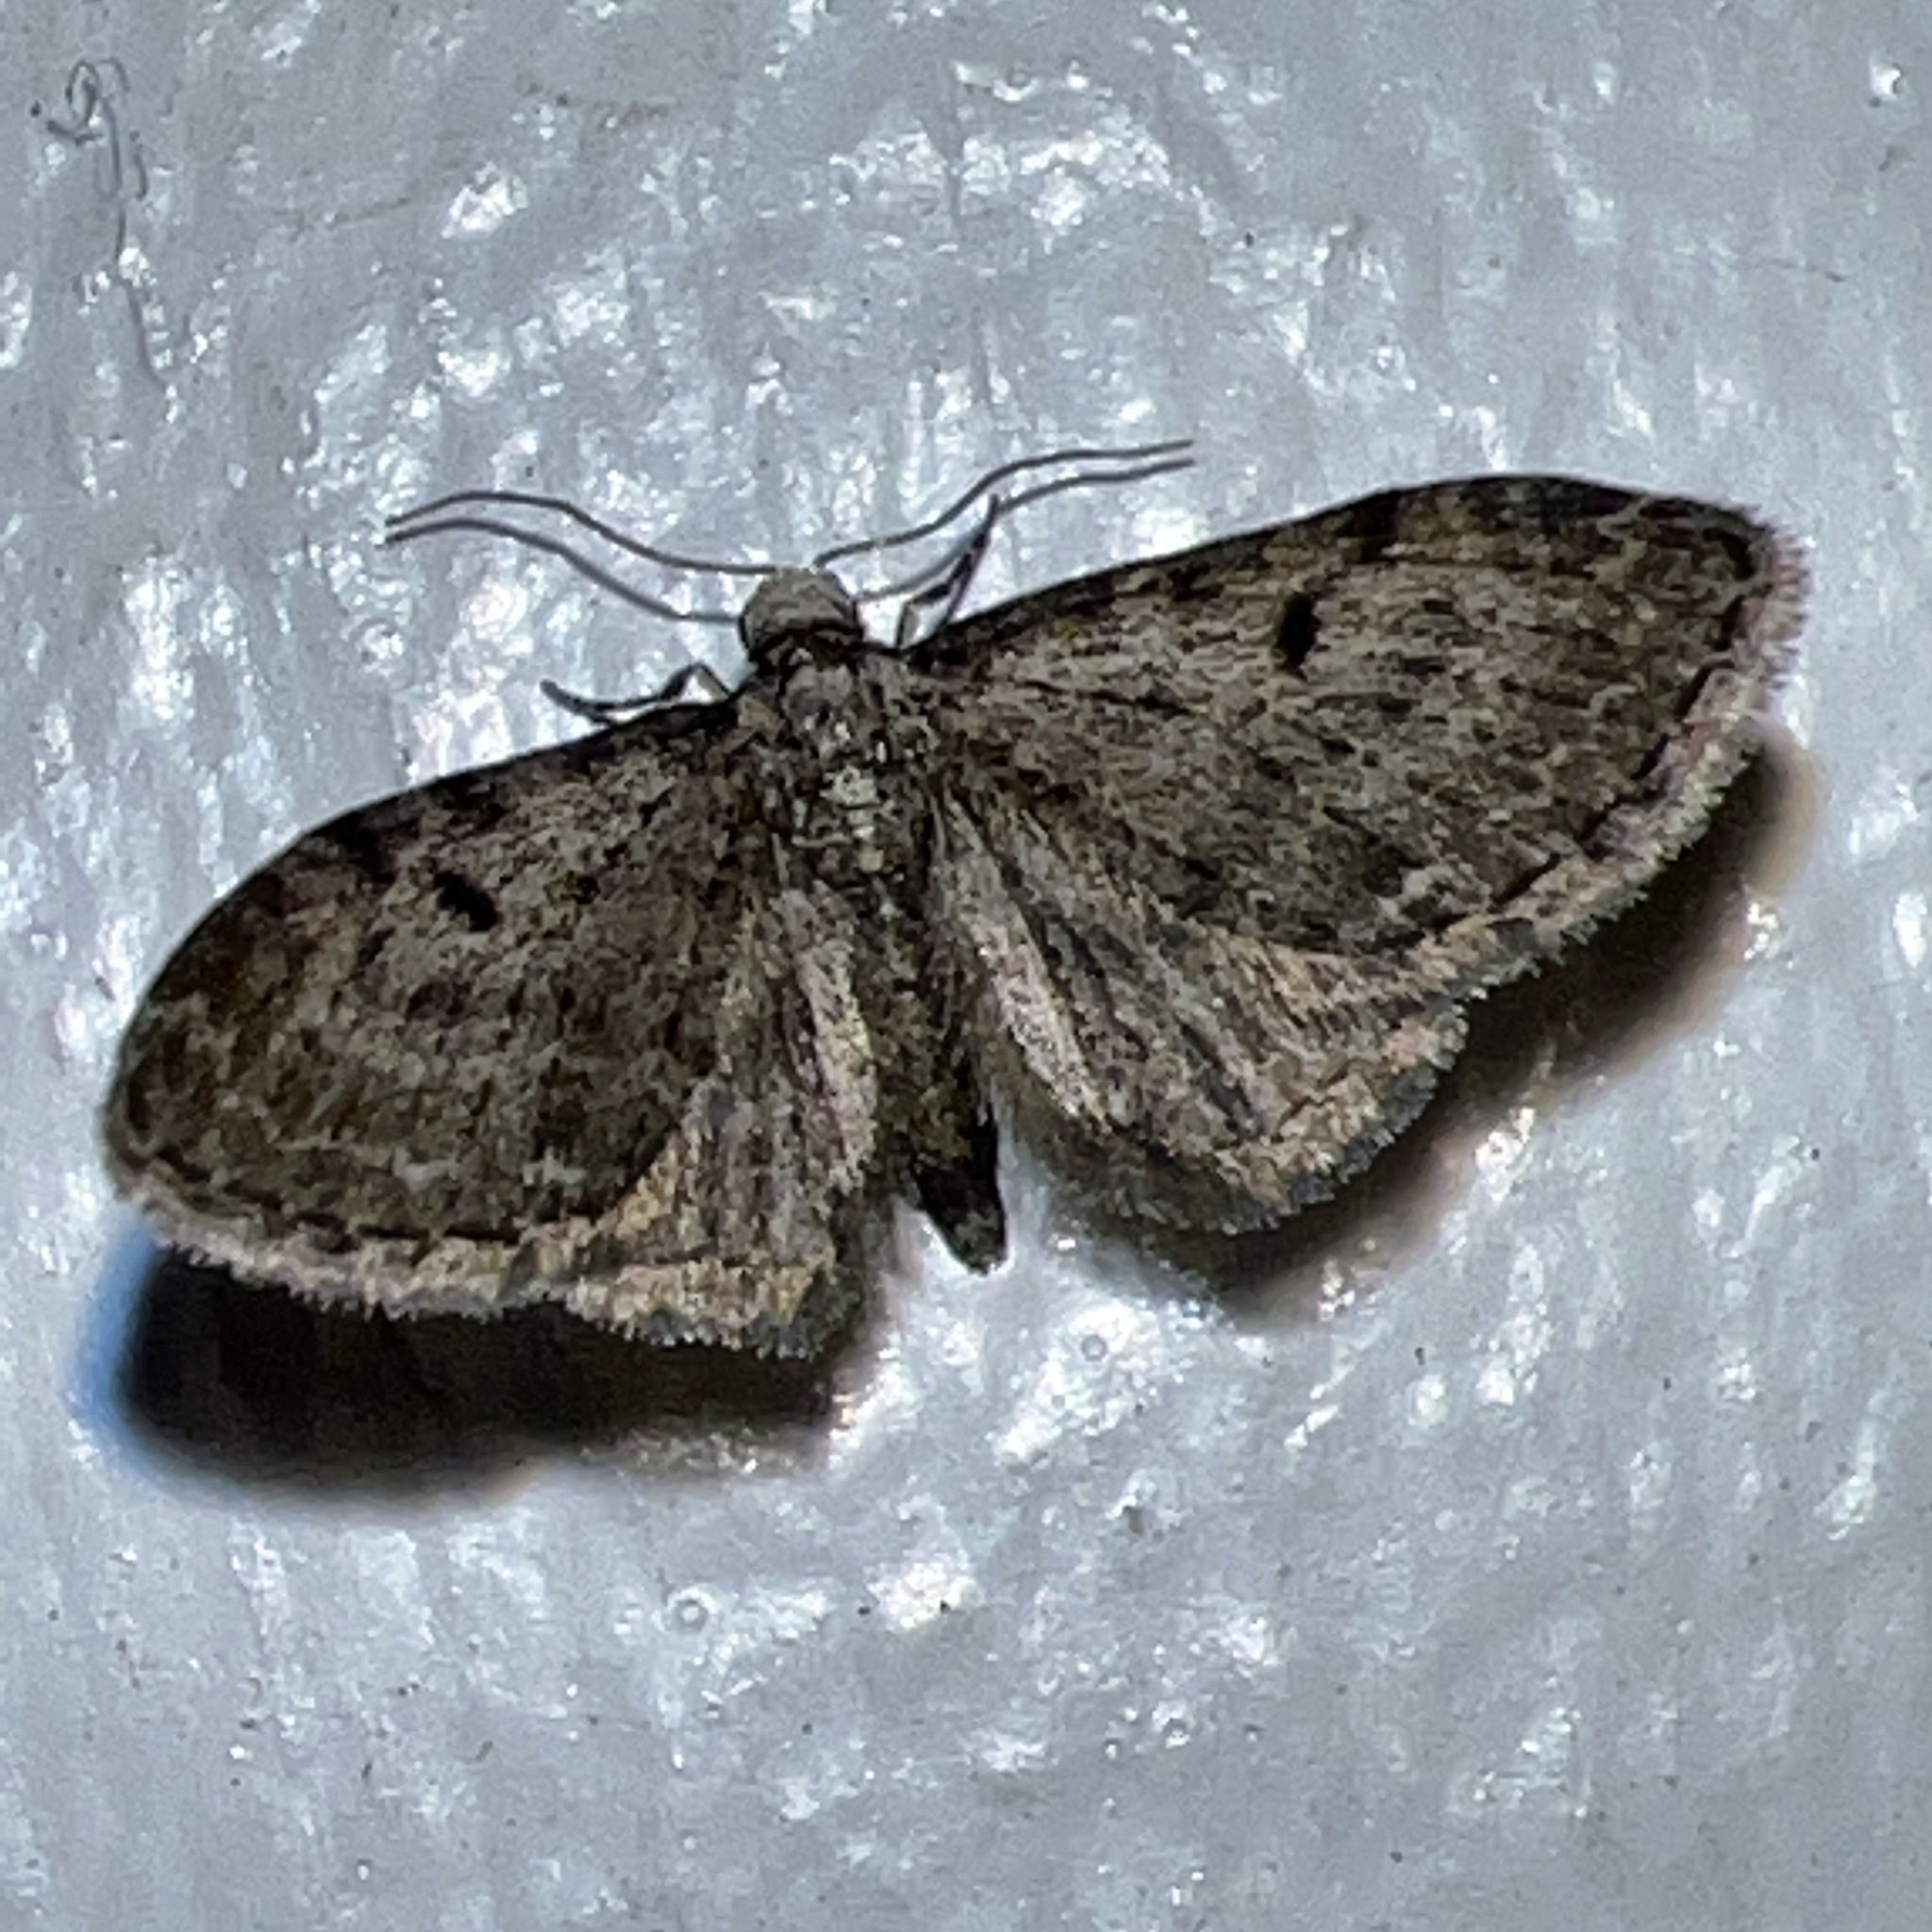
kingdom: Animalia
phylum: Arthropoda
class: Insecta
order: Lepidoptera
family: Geometridae
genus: Eupithecia
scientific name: Eupithecia miserulata
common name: Common eupithecia
